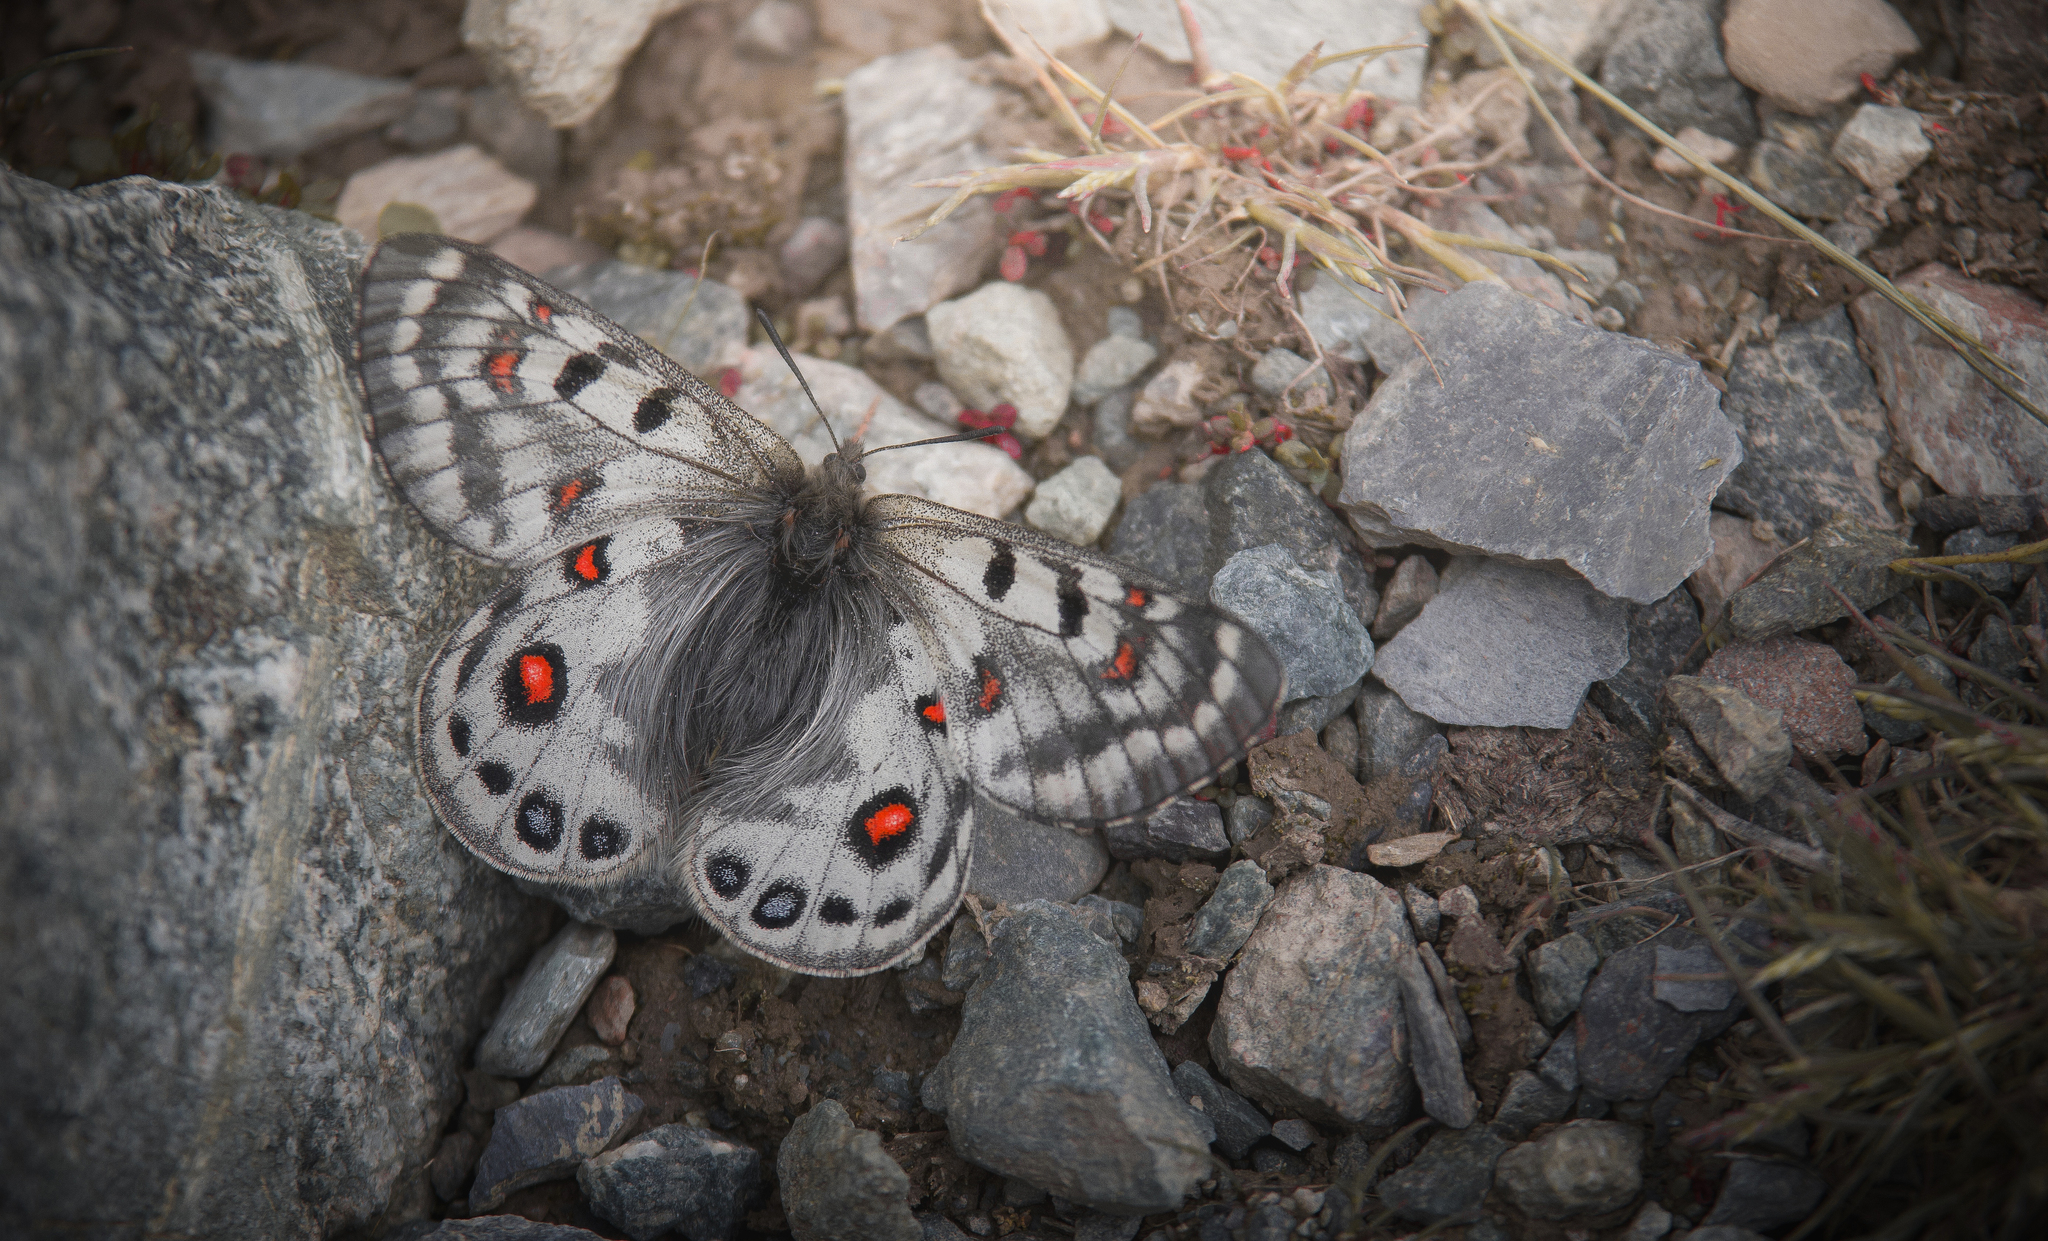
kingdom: Animalia
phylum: Arthropoda
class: Insecta
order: Lepidoptera
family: Papilionidae
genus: Parnassius
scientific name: Parnassius cephalus
